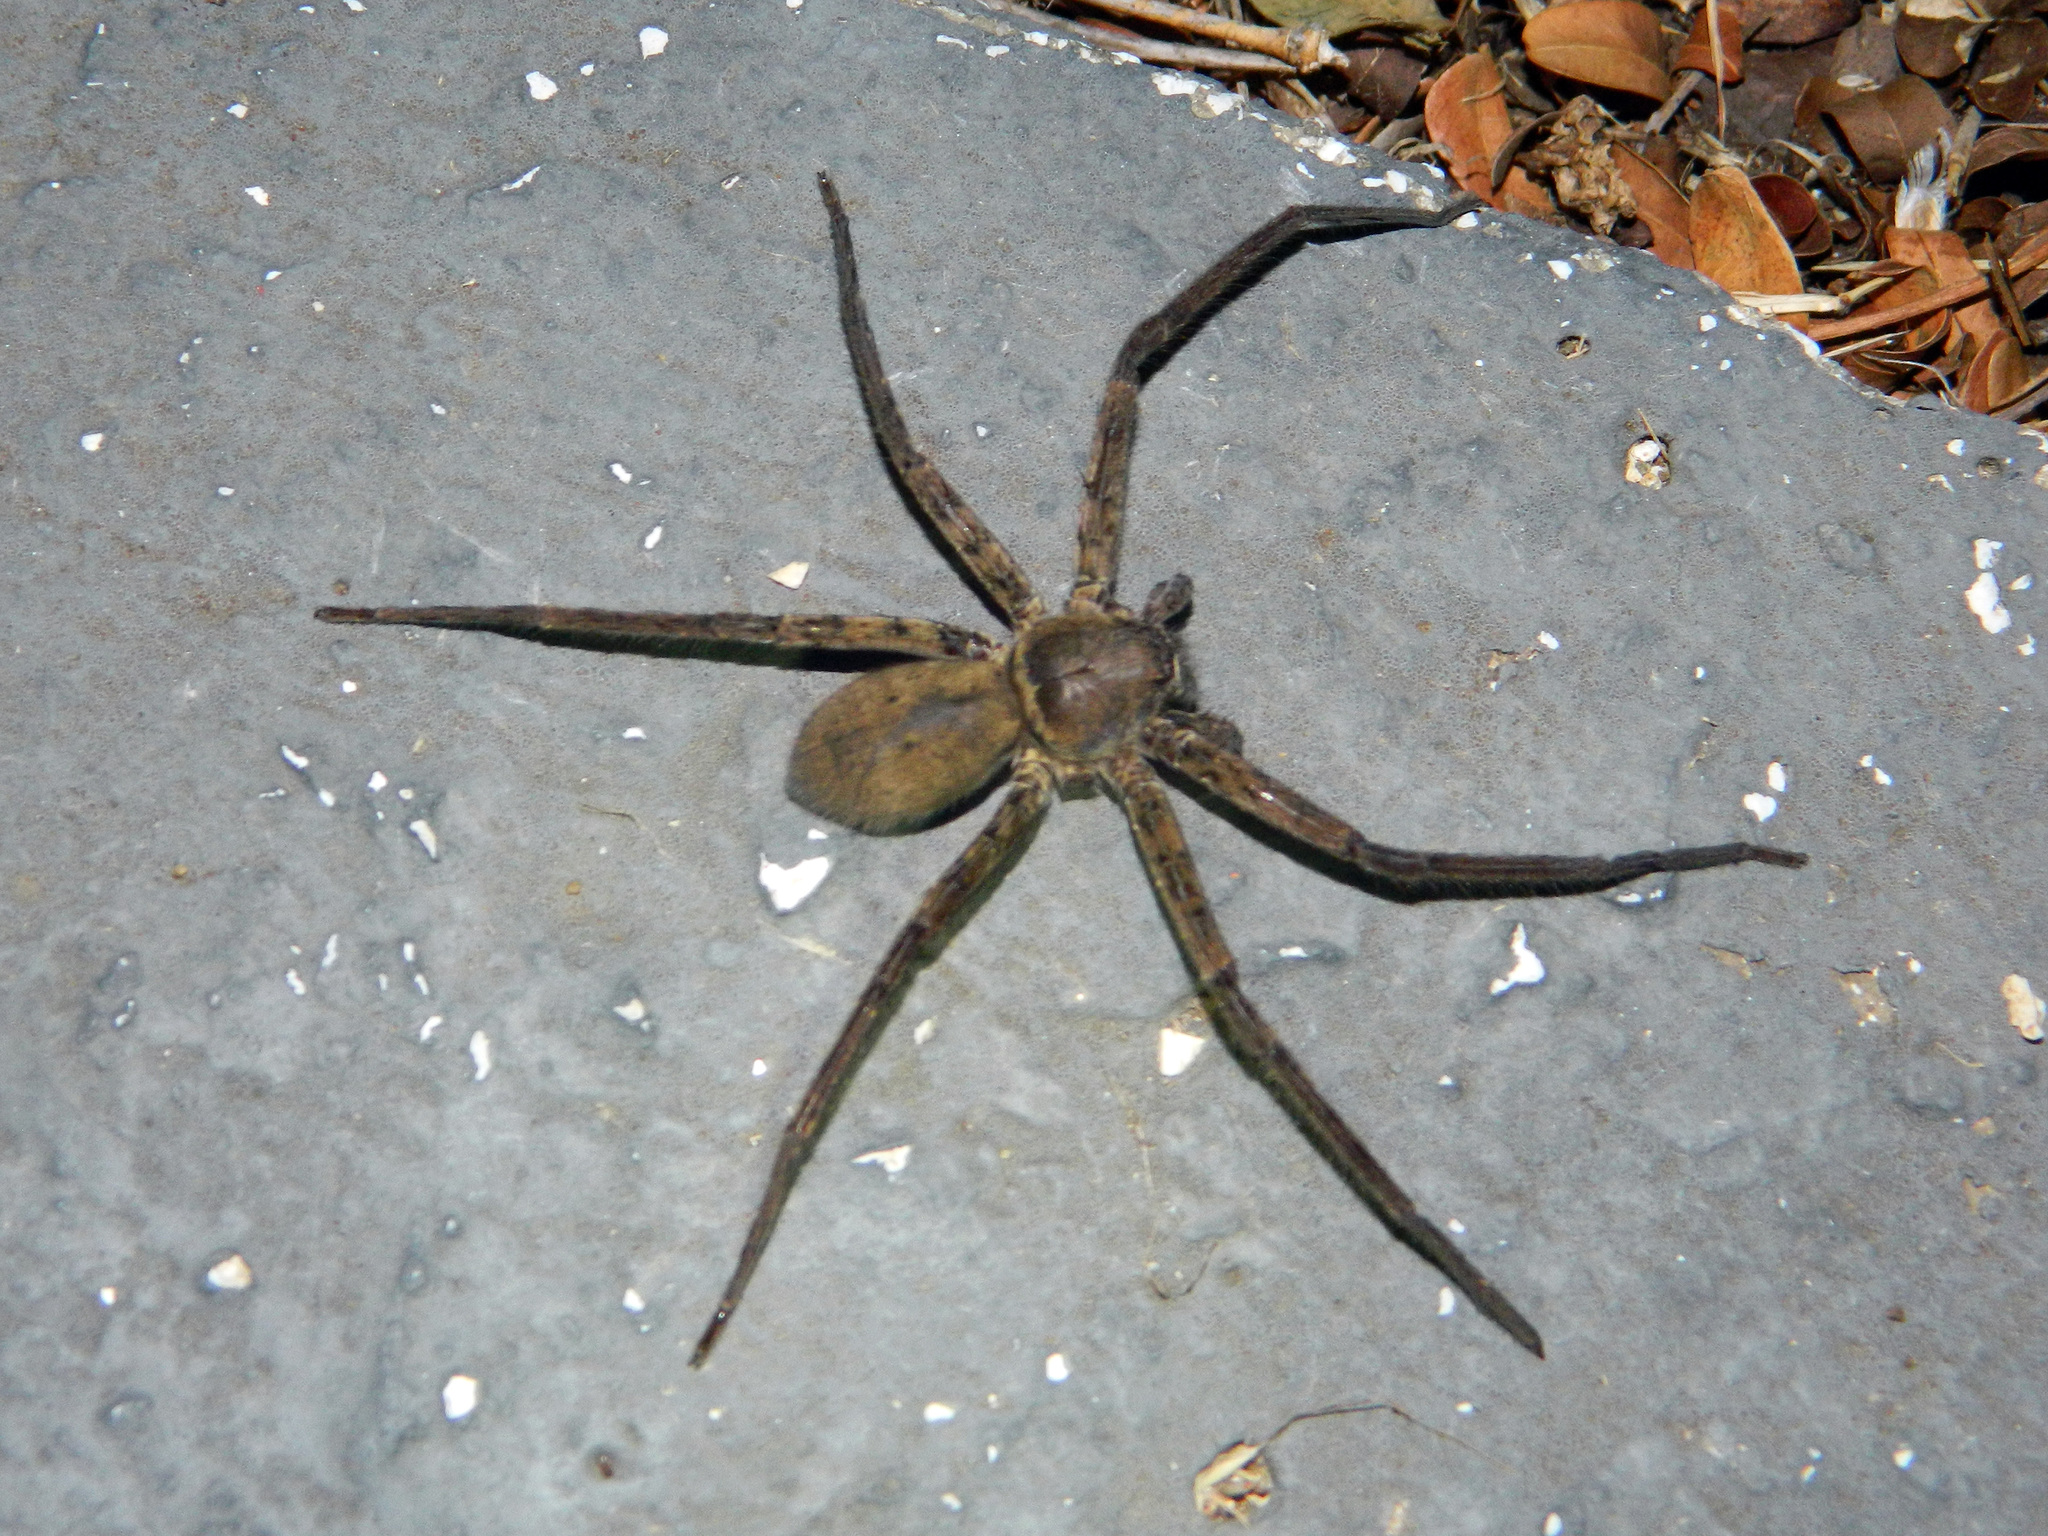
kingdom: Animalia
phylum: Arthropoda
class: Arachnida
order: Araneae
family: Sparassidae
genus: Heteropoda
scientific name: Heteropoda venatoria
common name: Huntsman spider
